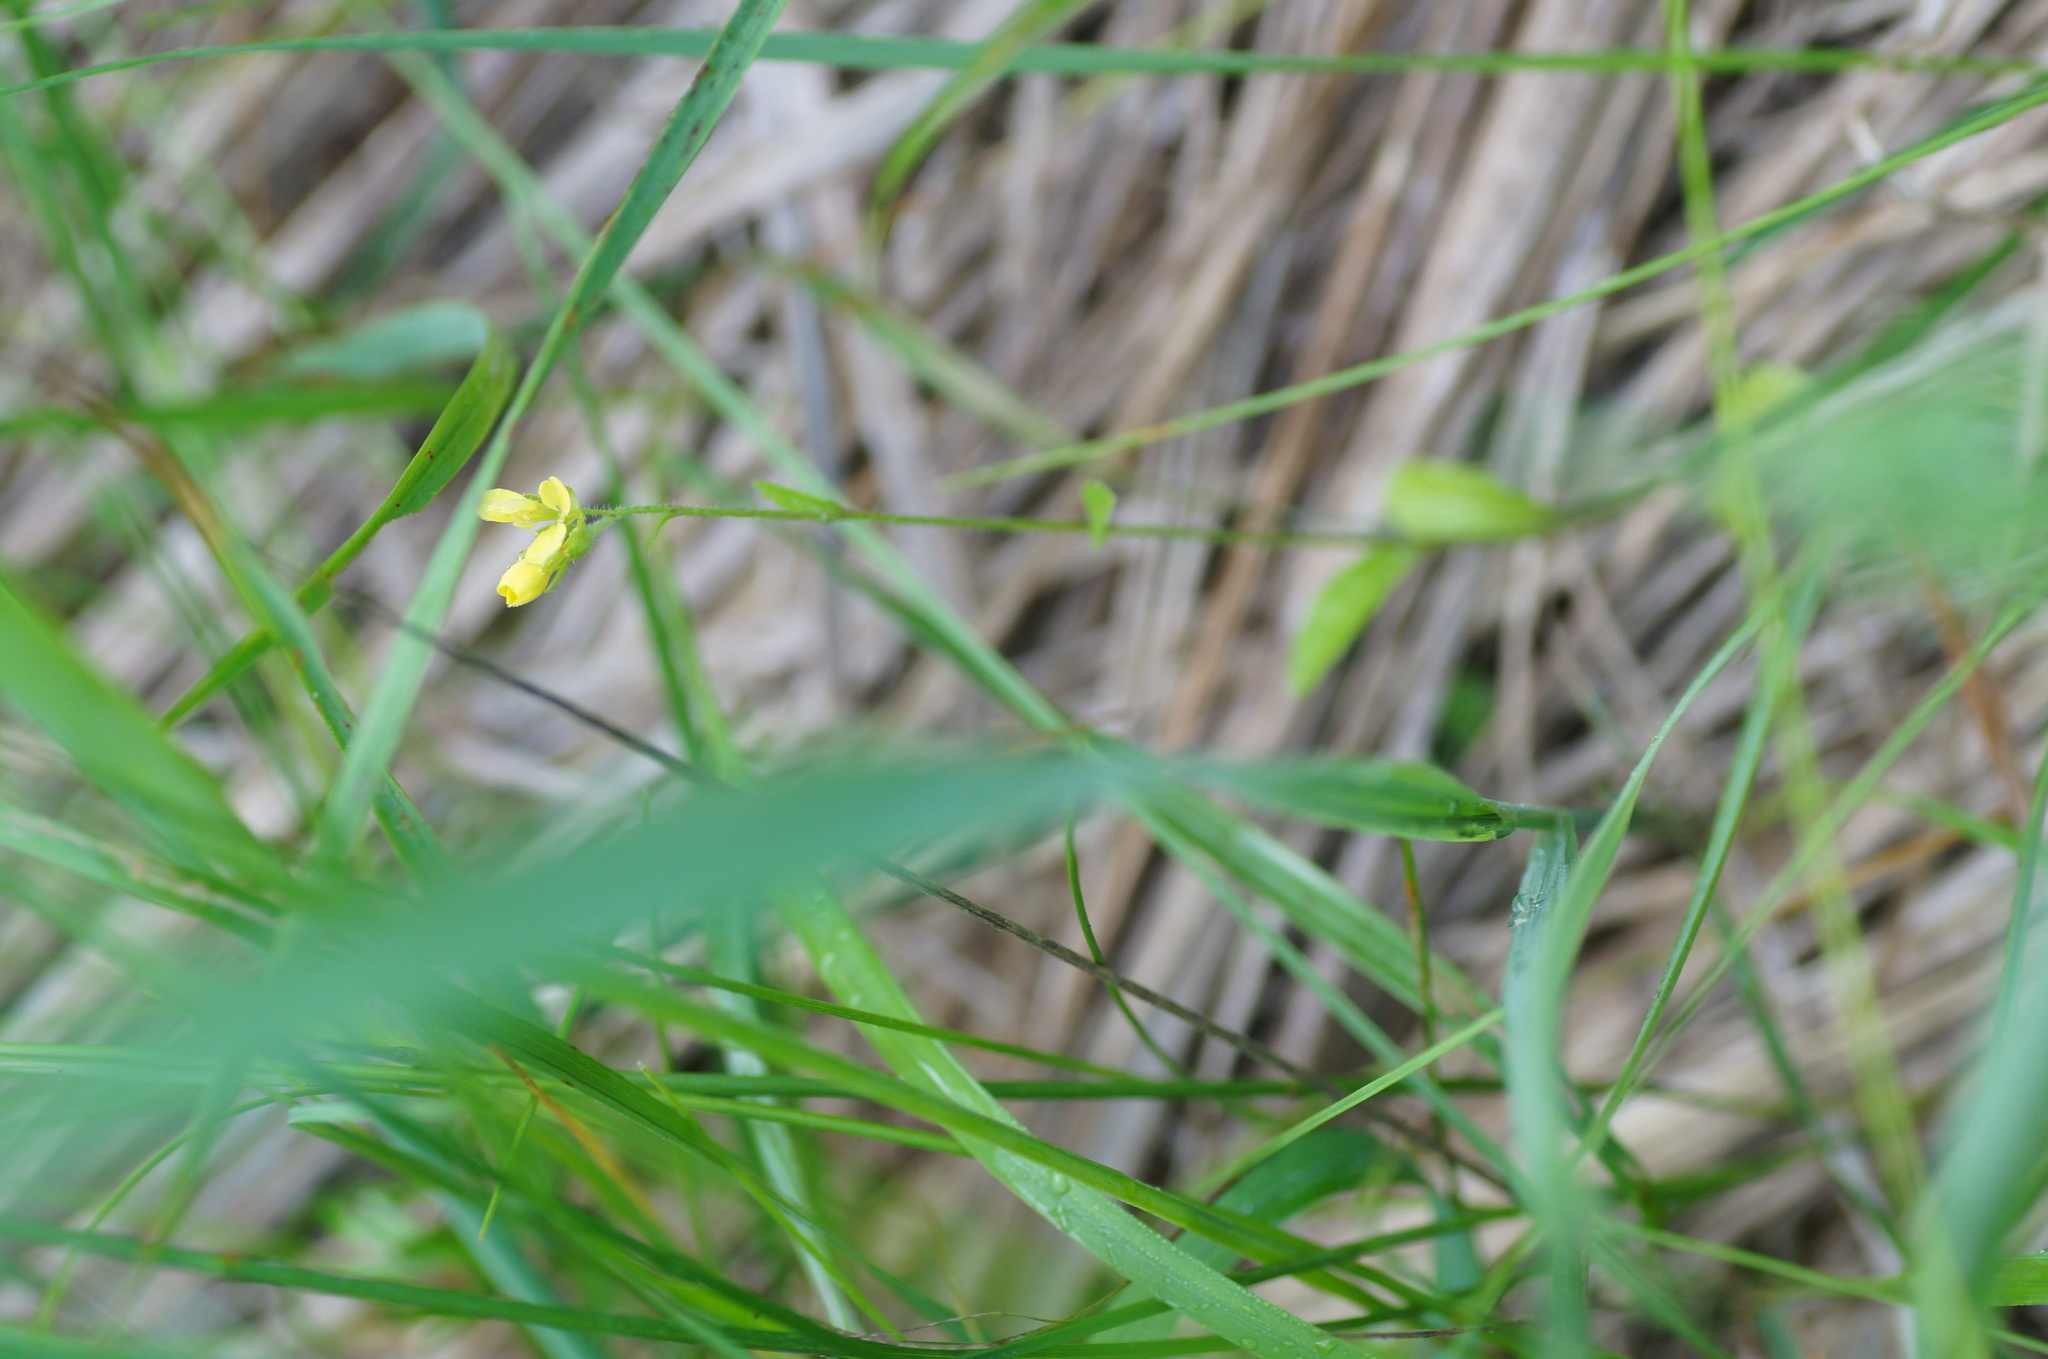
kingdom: Plantae
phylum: Tracheophyta
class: Magnoliopsida
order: Brassicales
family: Brassicaceae
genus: Sisymbrium
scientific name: Sisymbrium loeselii
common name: False london-rocket
